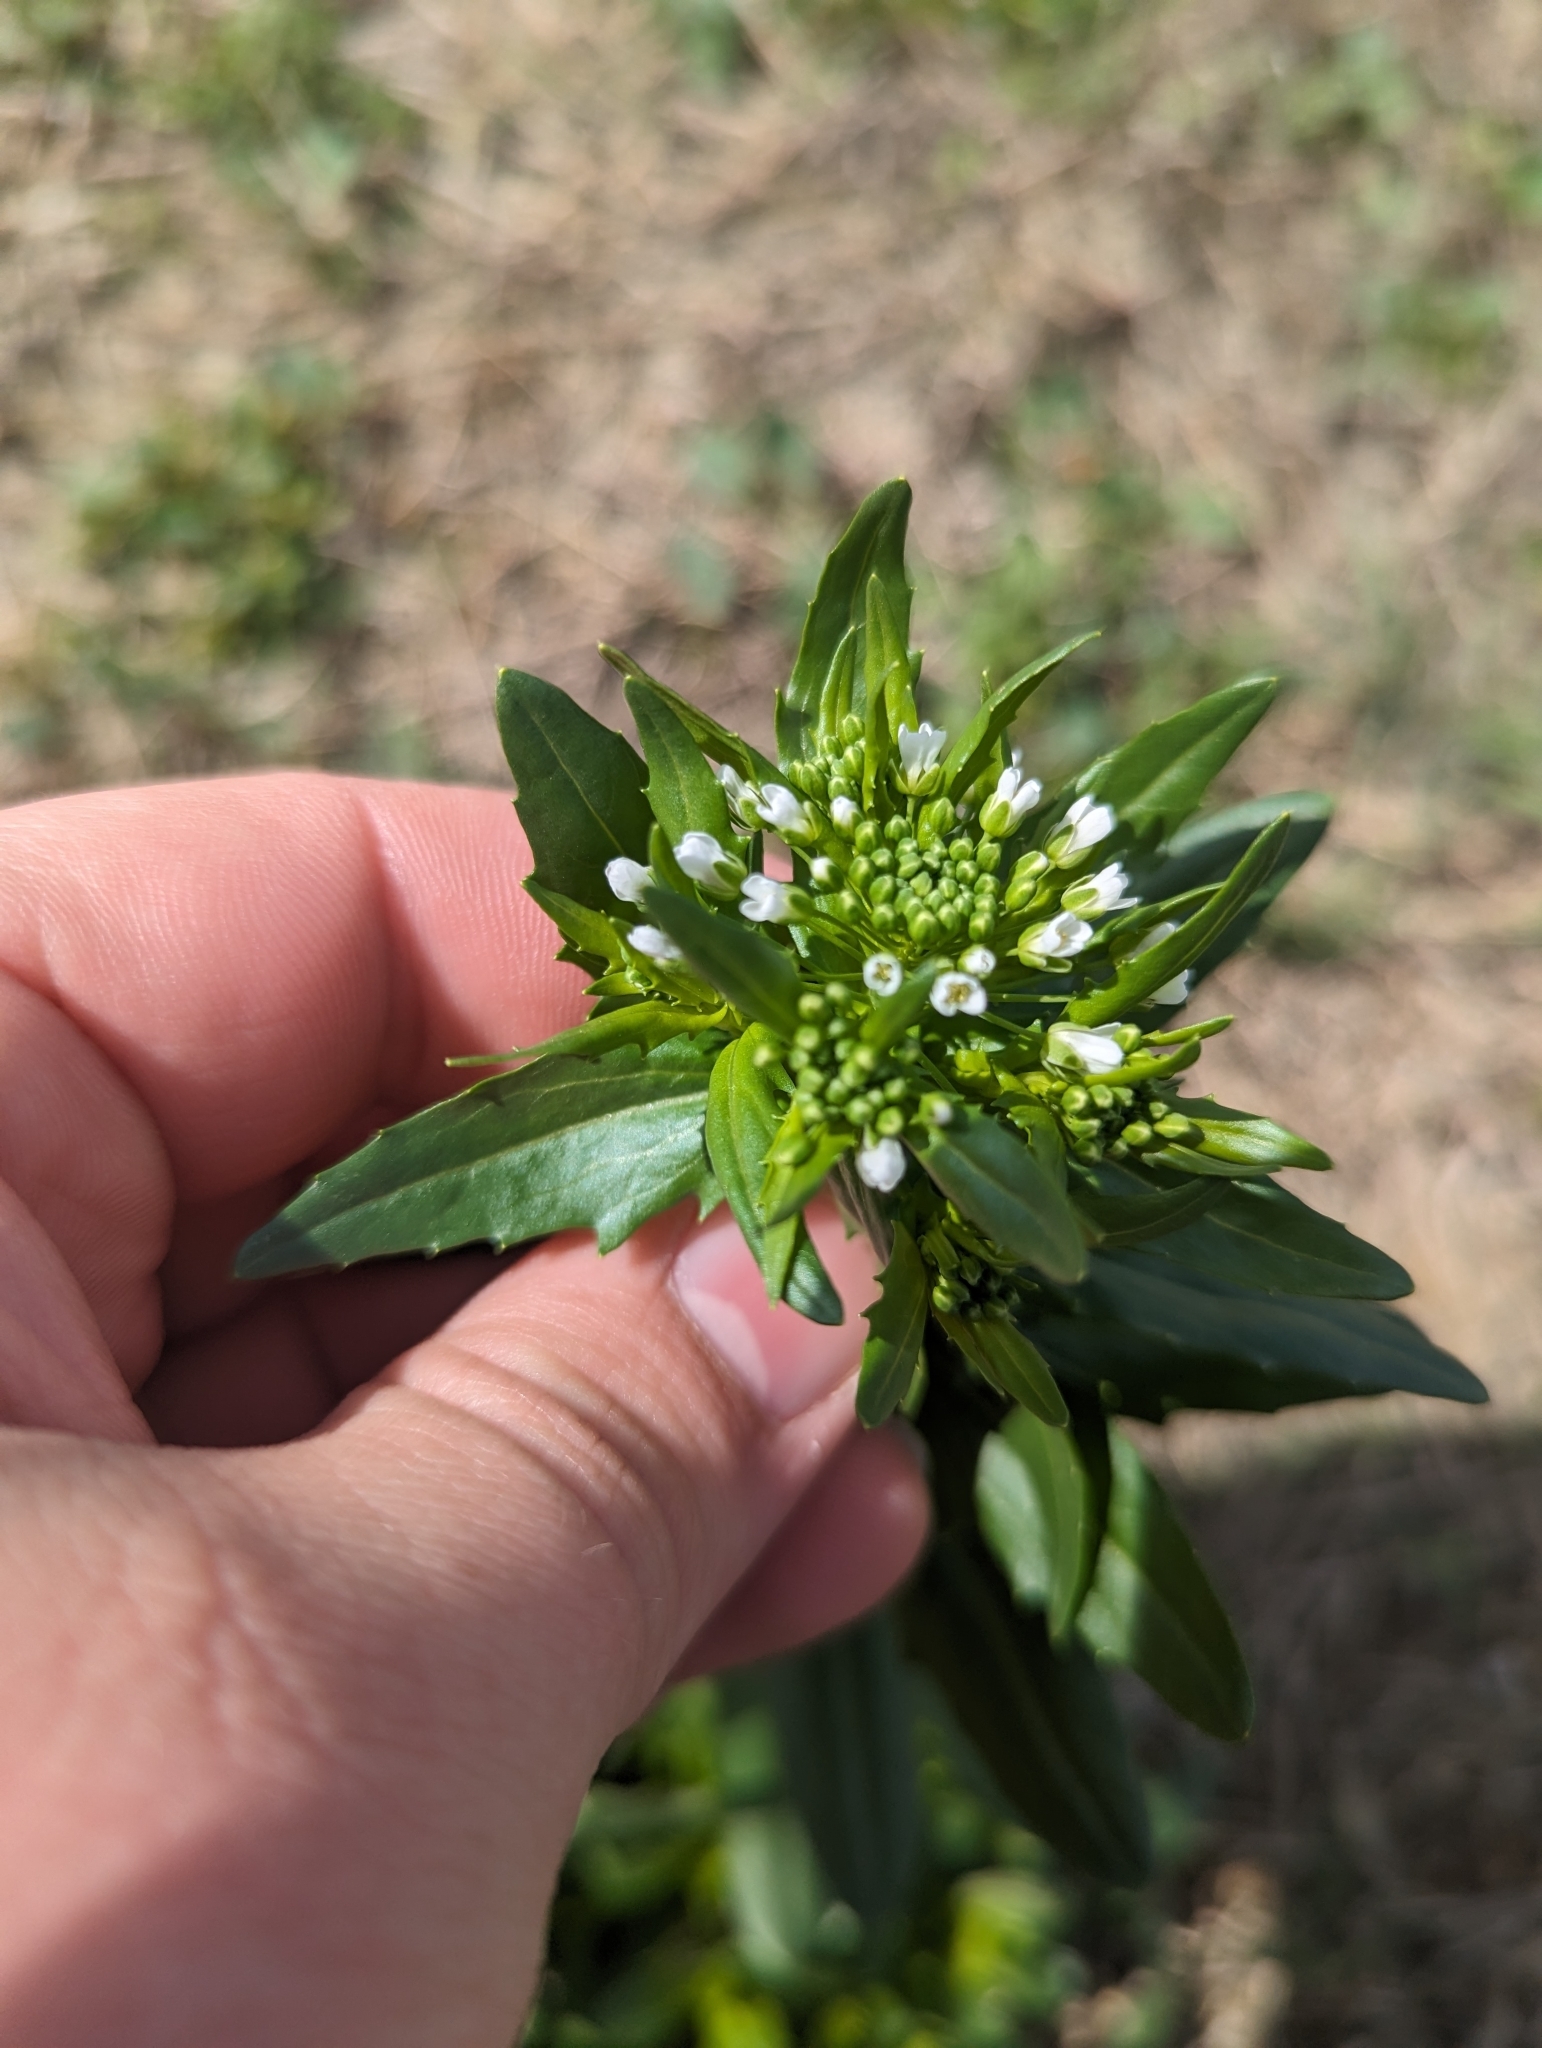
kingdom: Plantae
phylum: Tracheophyta
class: Magnoliopsida
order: Brassicales
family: Brassicaceae
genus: Thlaspi
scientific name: Thlaspi arvense
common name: Field pennycress
